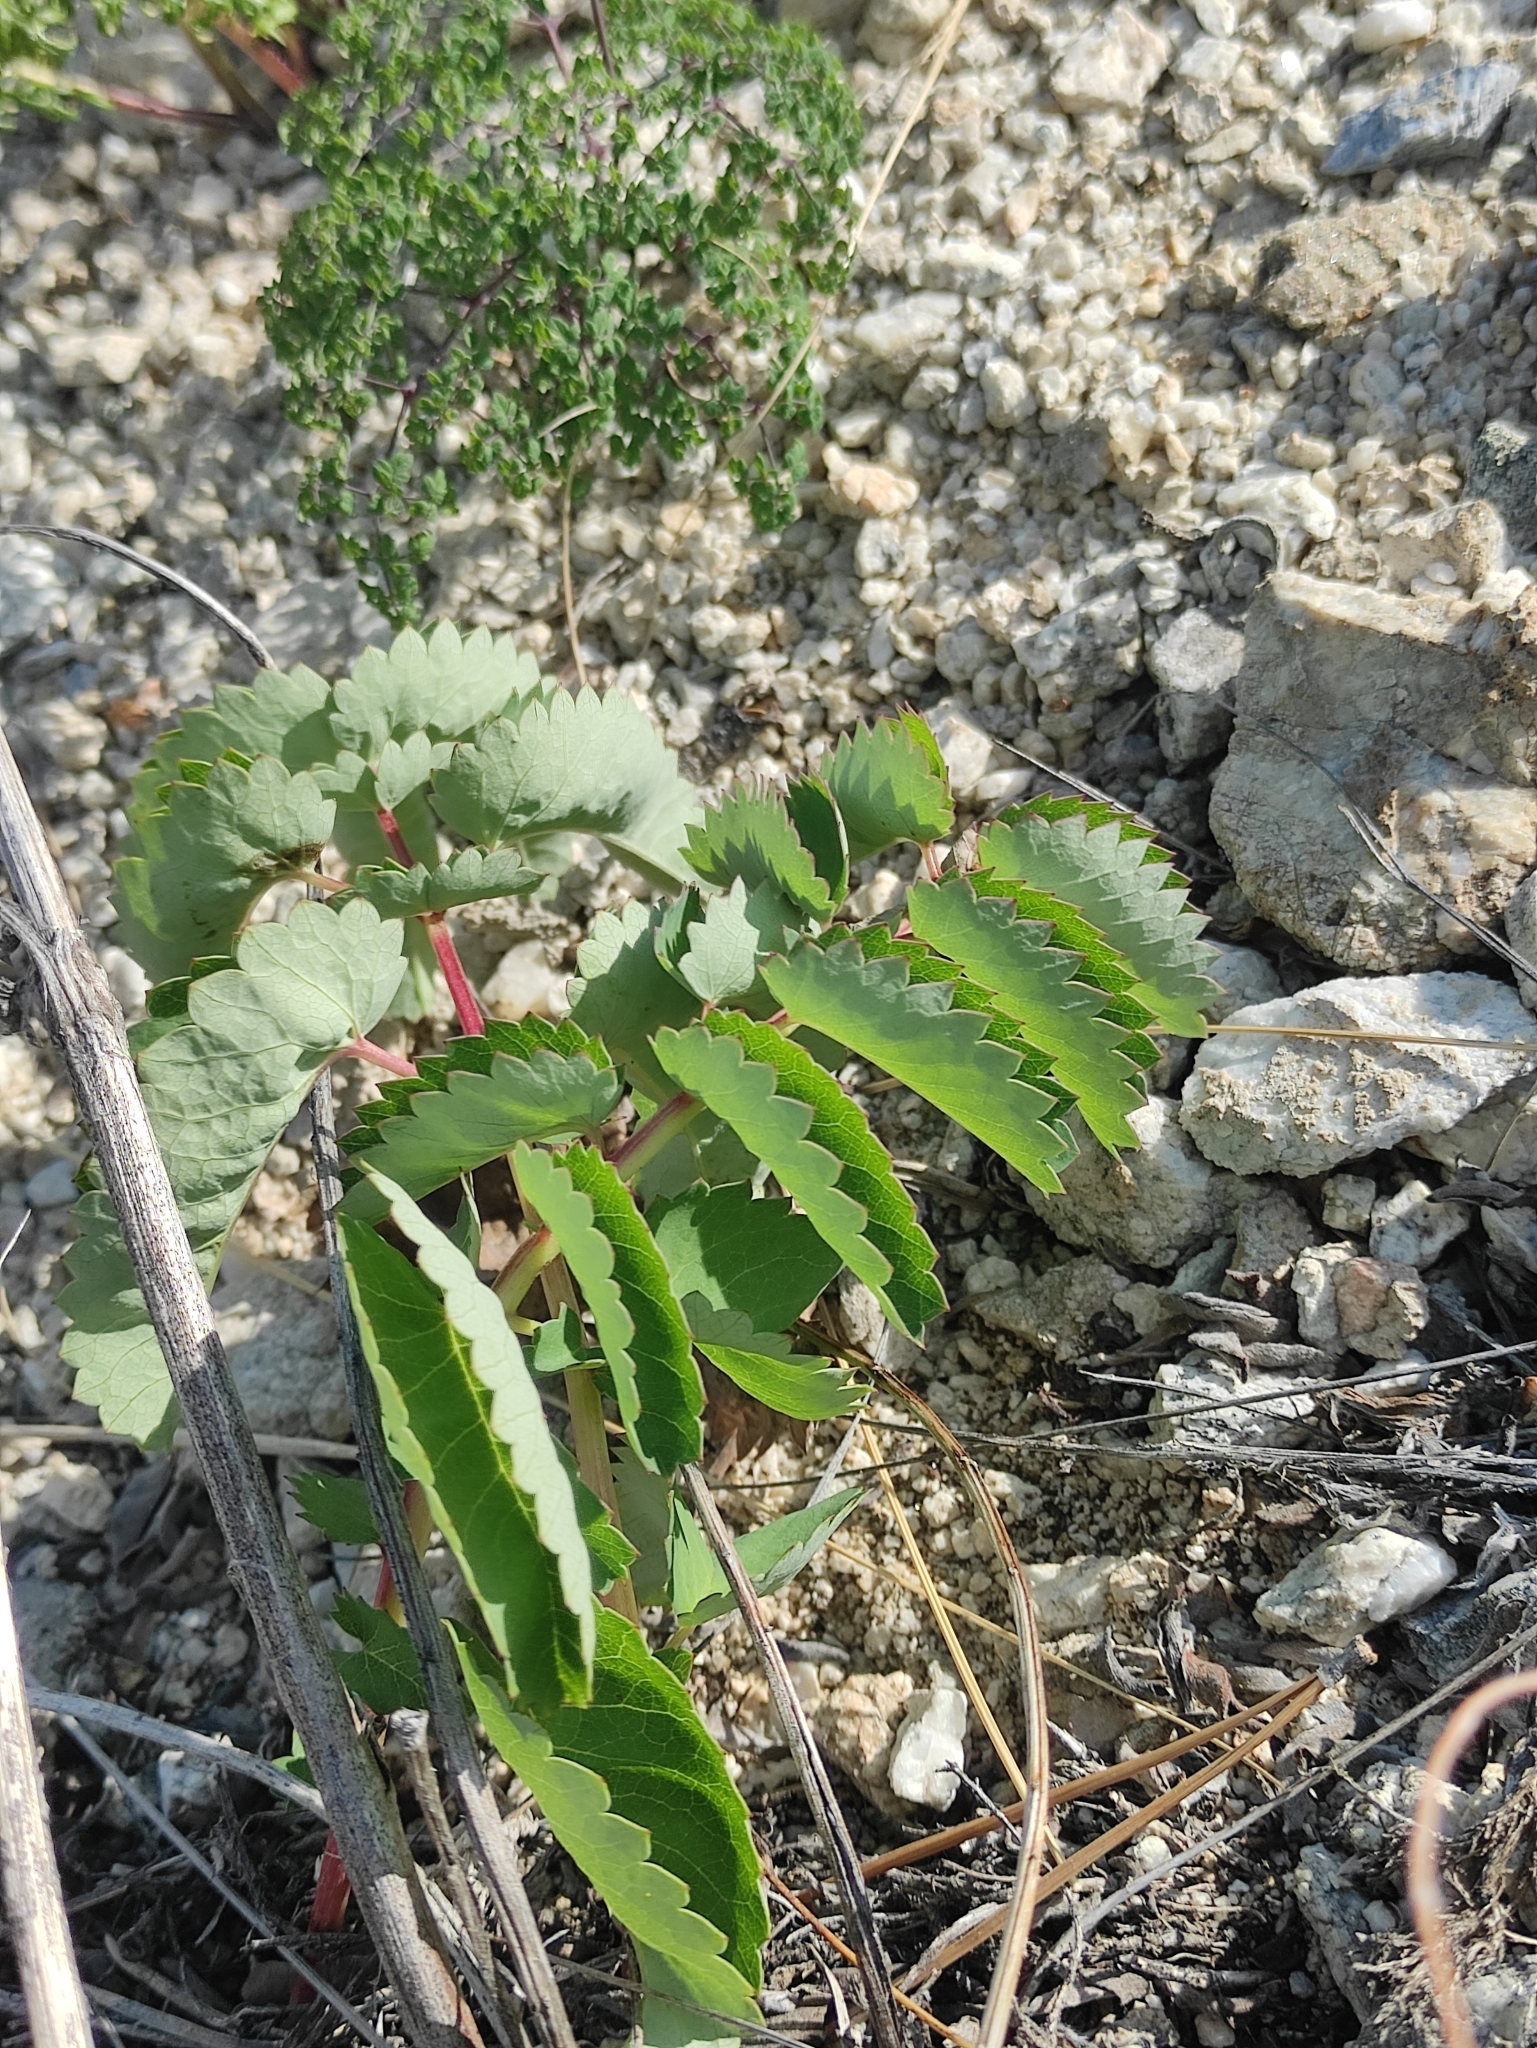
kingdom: Plantae
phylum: Tracheophyta
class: Magnoliopsida
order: Rosales
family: Rosaceae
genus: Sanguisorba
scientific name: Sanguisorba officinalis
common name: Great burnet
